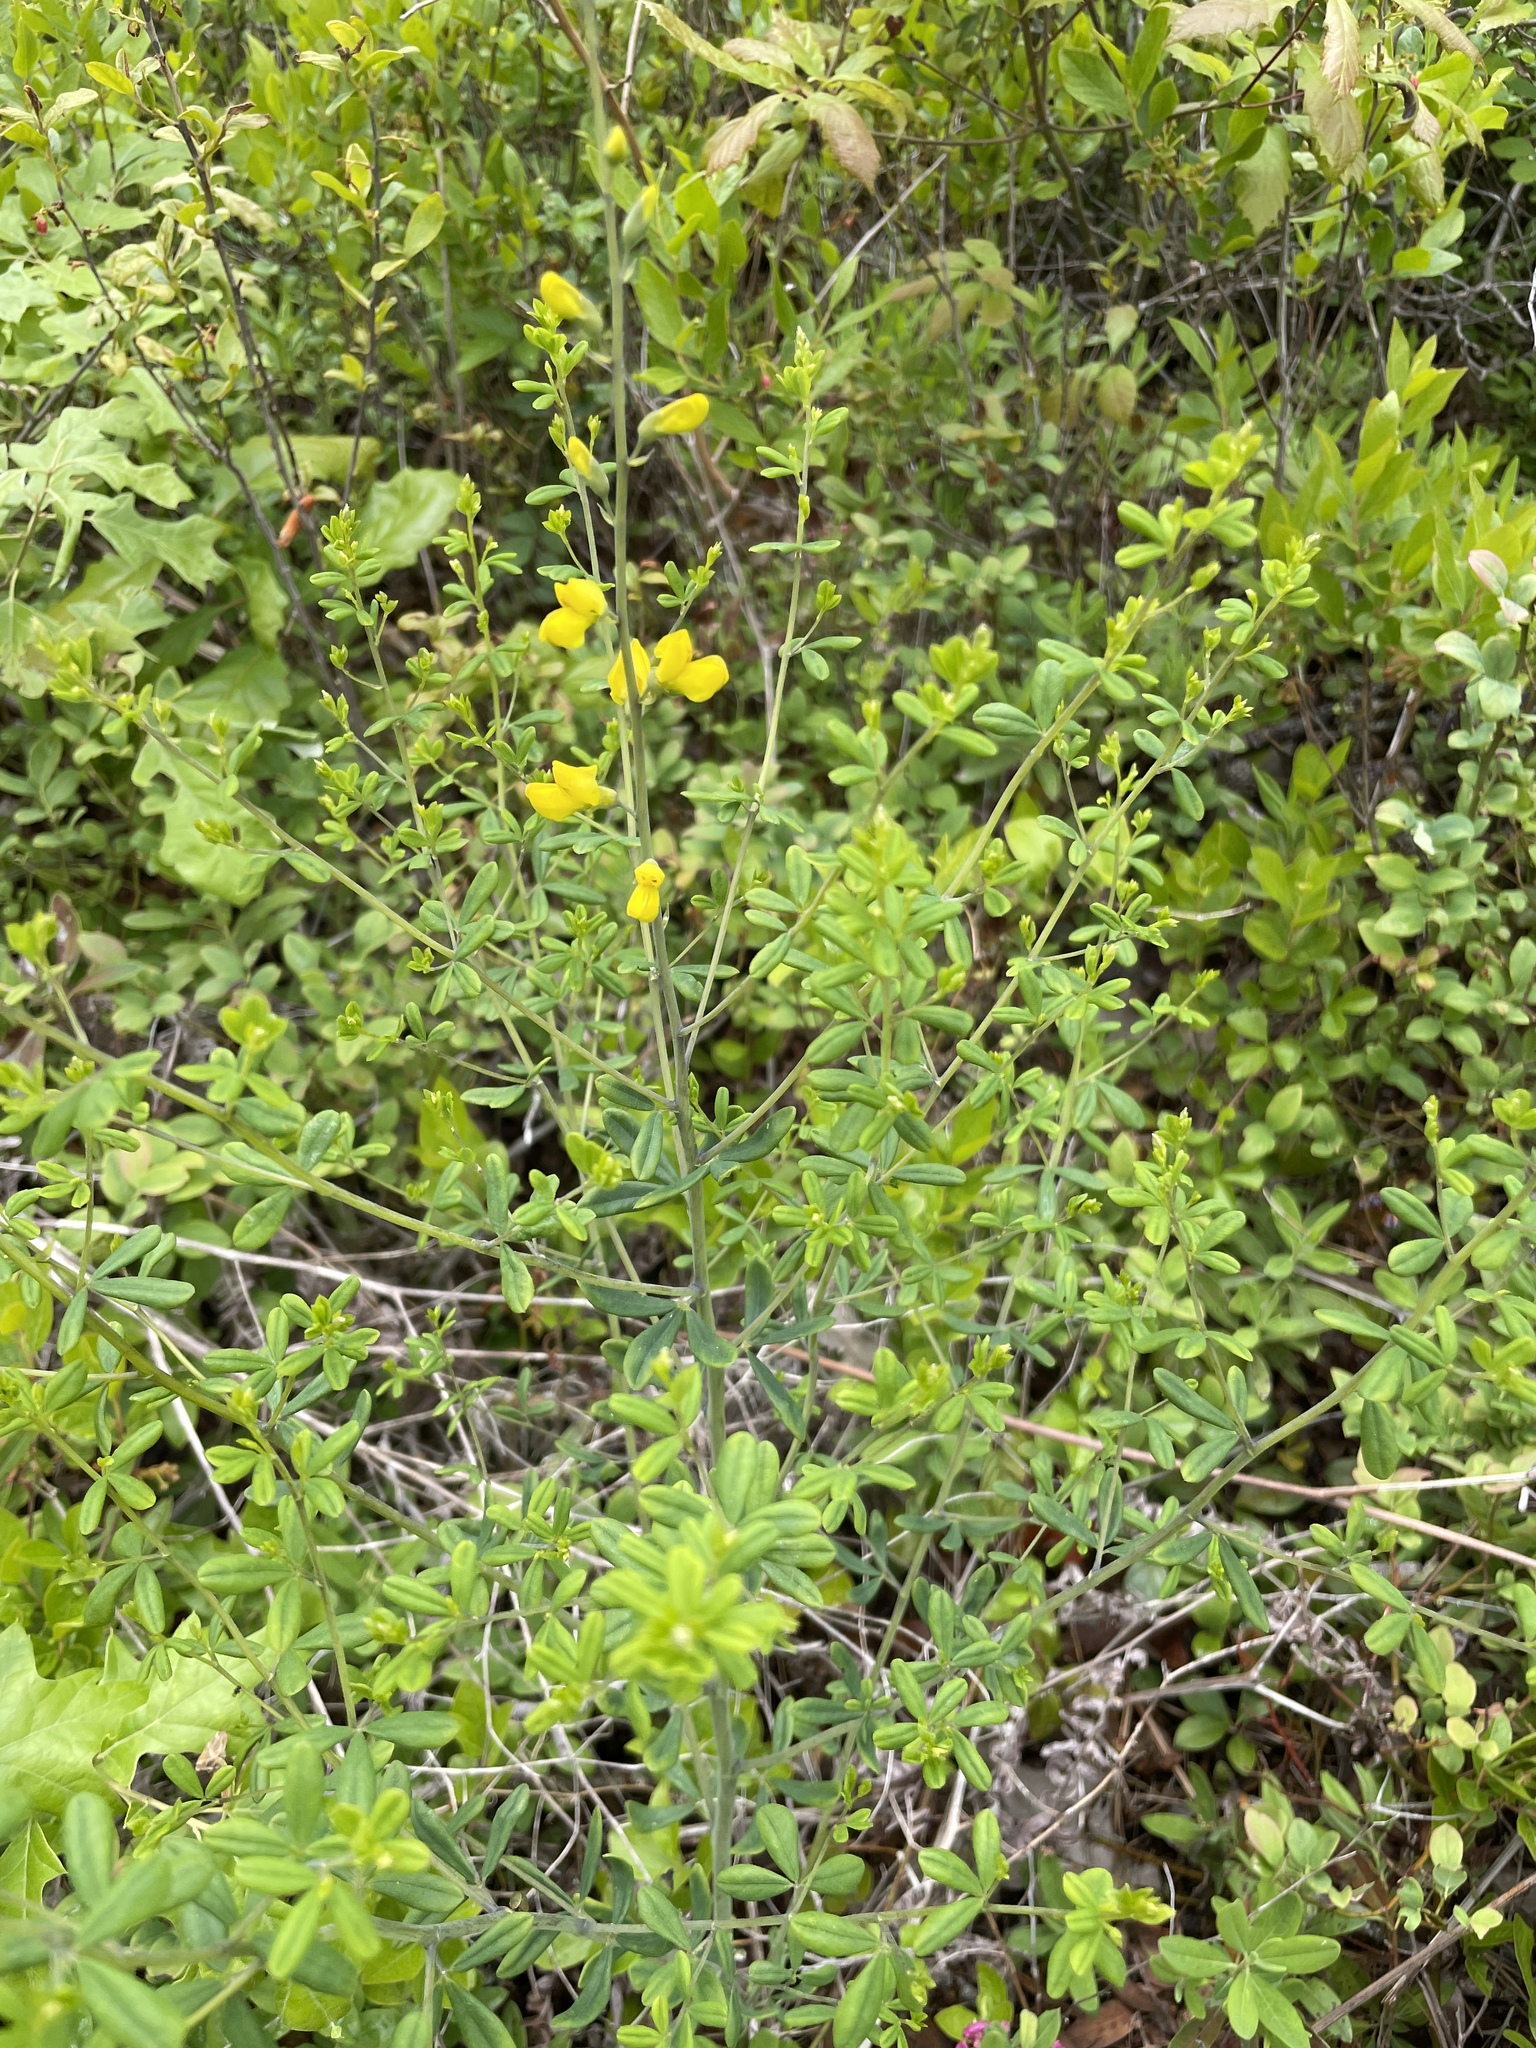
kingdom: Plantae
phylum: Tracheophyta
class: Magnoliopsida
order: Fabales
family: Fabaceae
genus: Baptisia
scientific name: Baptisia tinctoria
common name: Wild indigo
